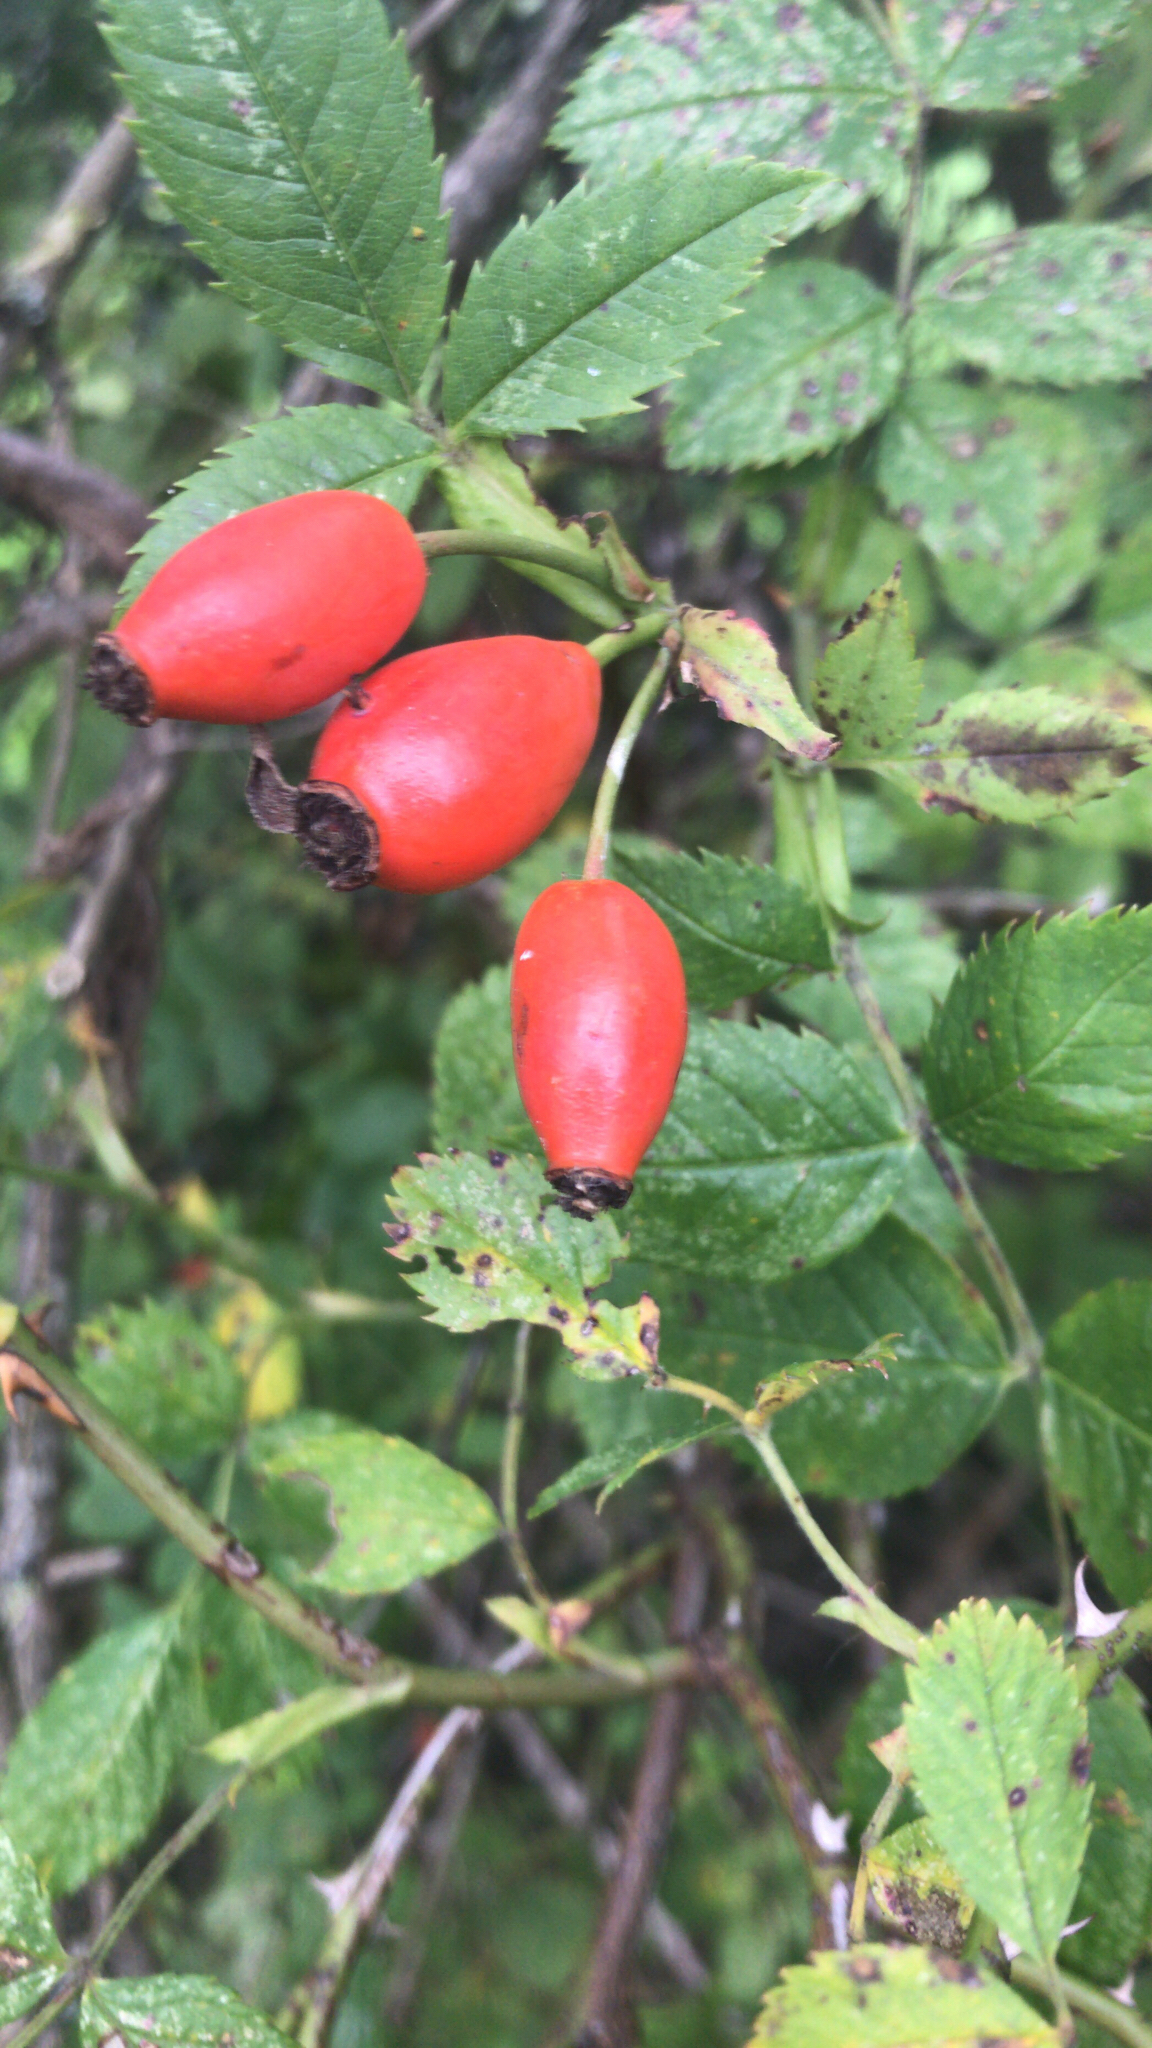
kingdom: Plantae
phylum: Tracheophyta
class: Magnoliopsida
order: Rosales
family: Rosaceae
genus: Rosa
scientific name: Rosa canina
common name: Dog rose
